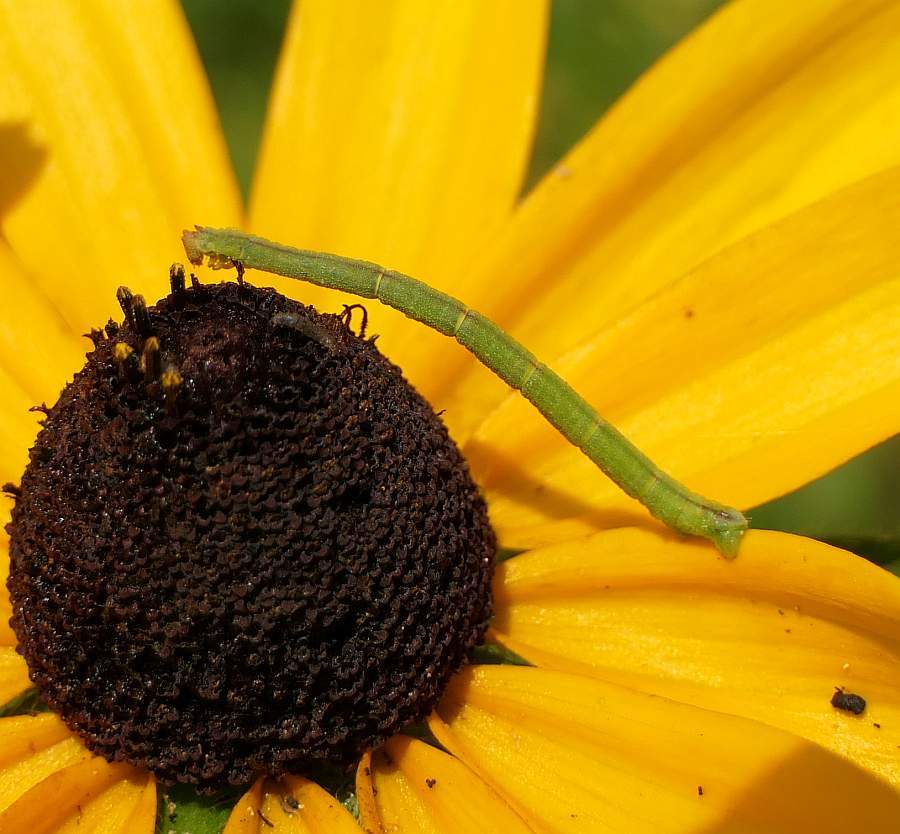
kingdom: Animalia
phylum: Arthropoda
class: Insecta
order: Lepidoptera
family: Geometridae
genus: Chlorochlamys
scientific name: Chlorochlamys chloroleucaria
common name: Blackberry looper
